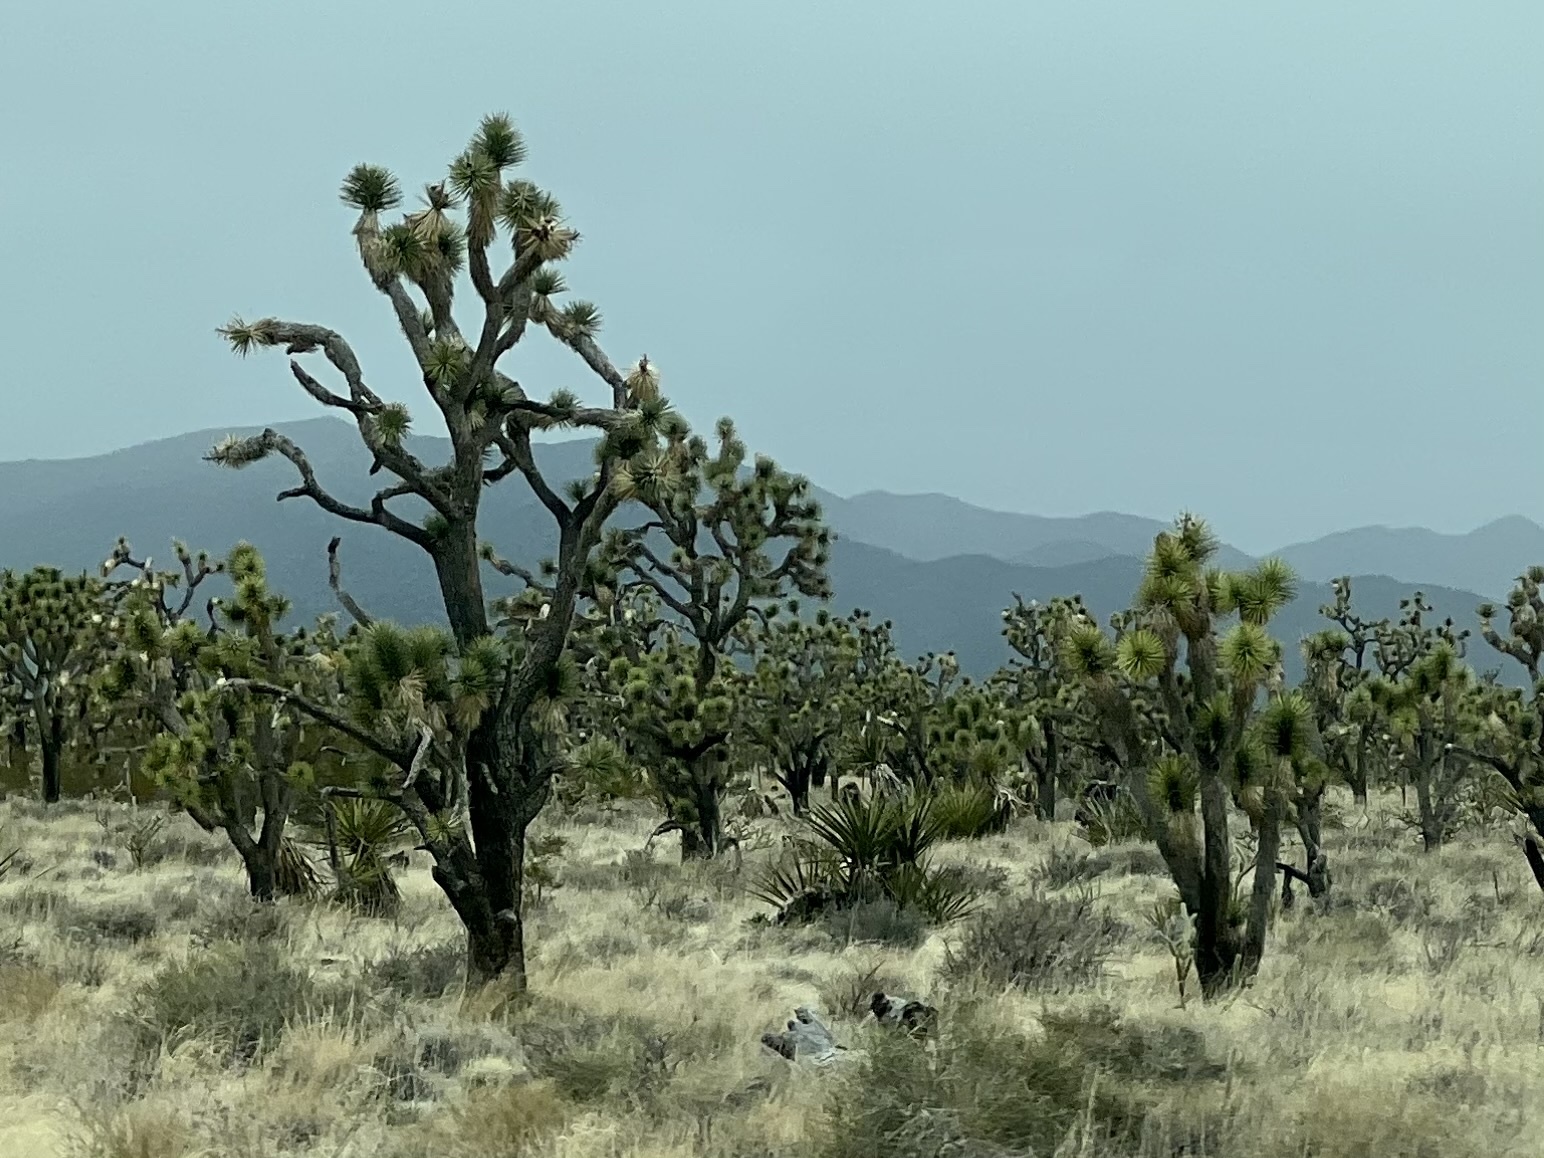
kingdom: Plantae
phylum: Tracheophyta
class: Liliopsida
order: Asparagales
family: Asparagaceae
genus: Yucca
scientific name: Yucca brevifolia
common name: Joshua tree
